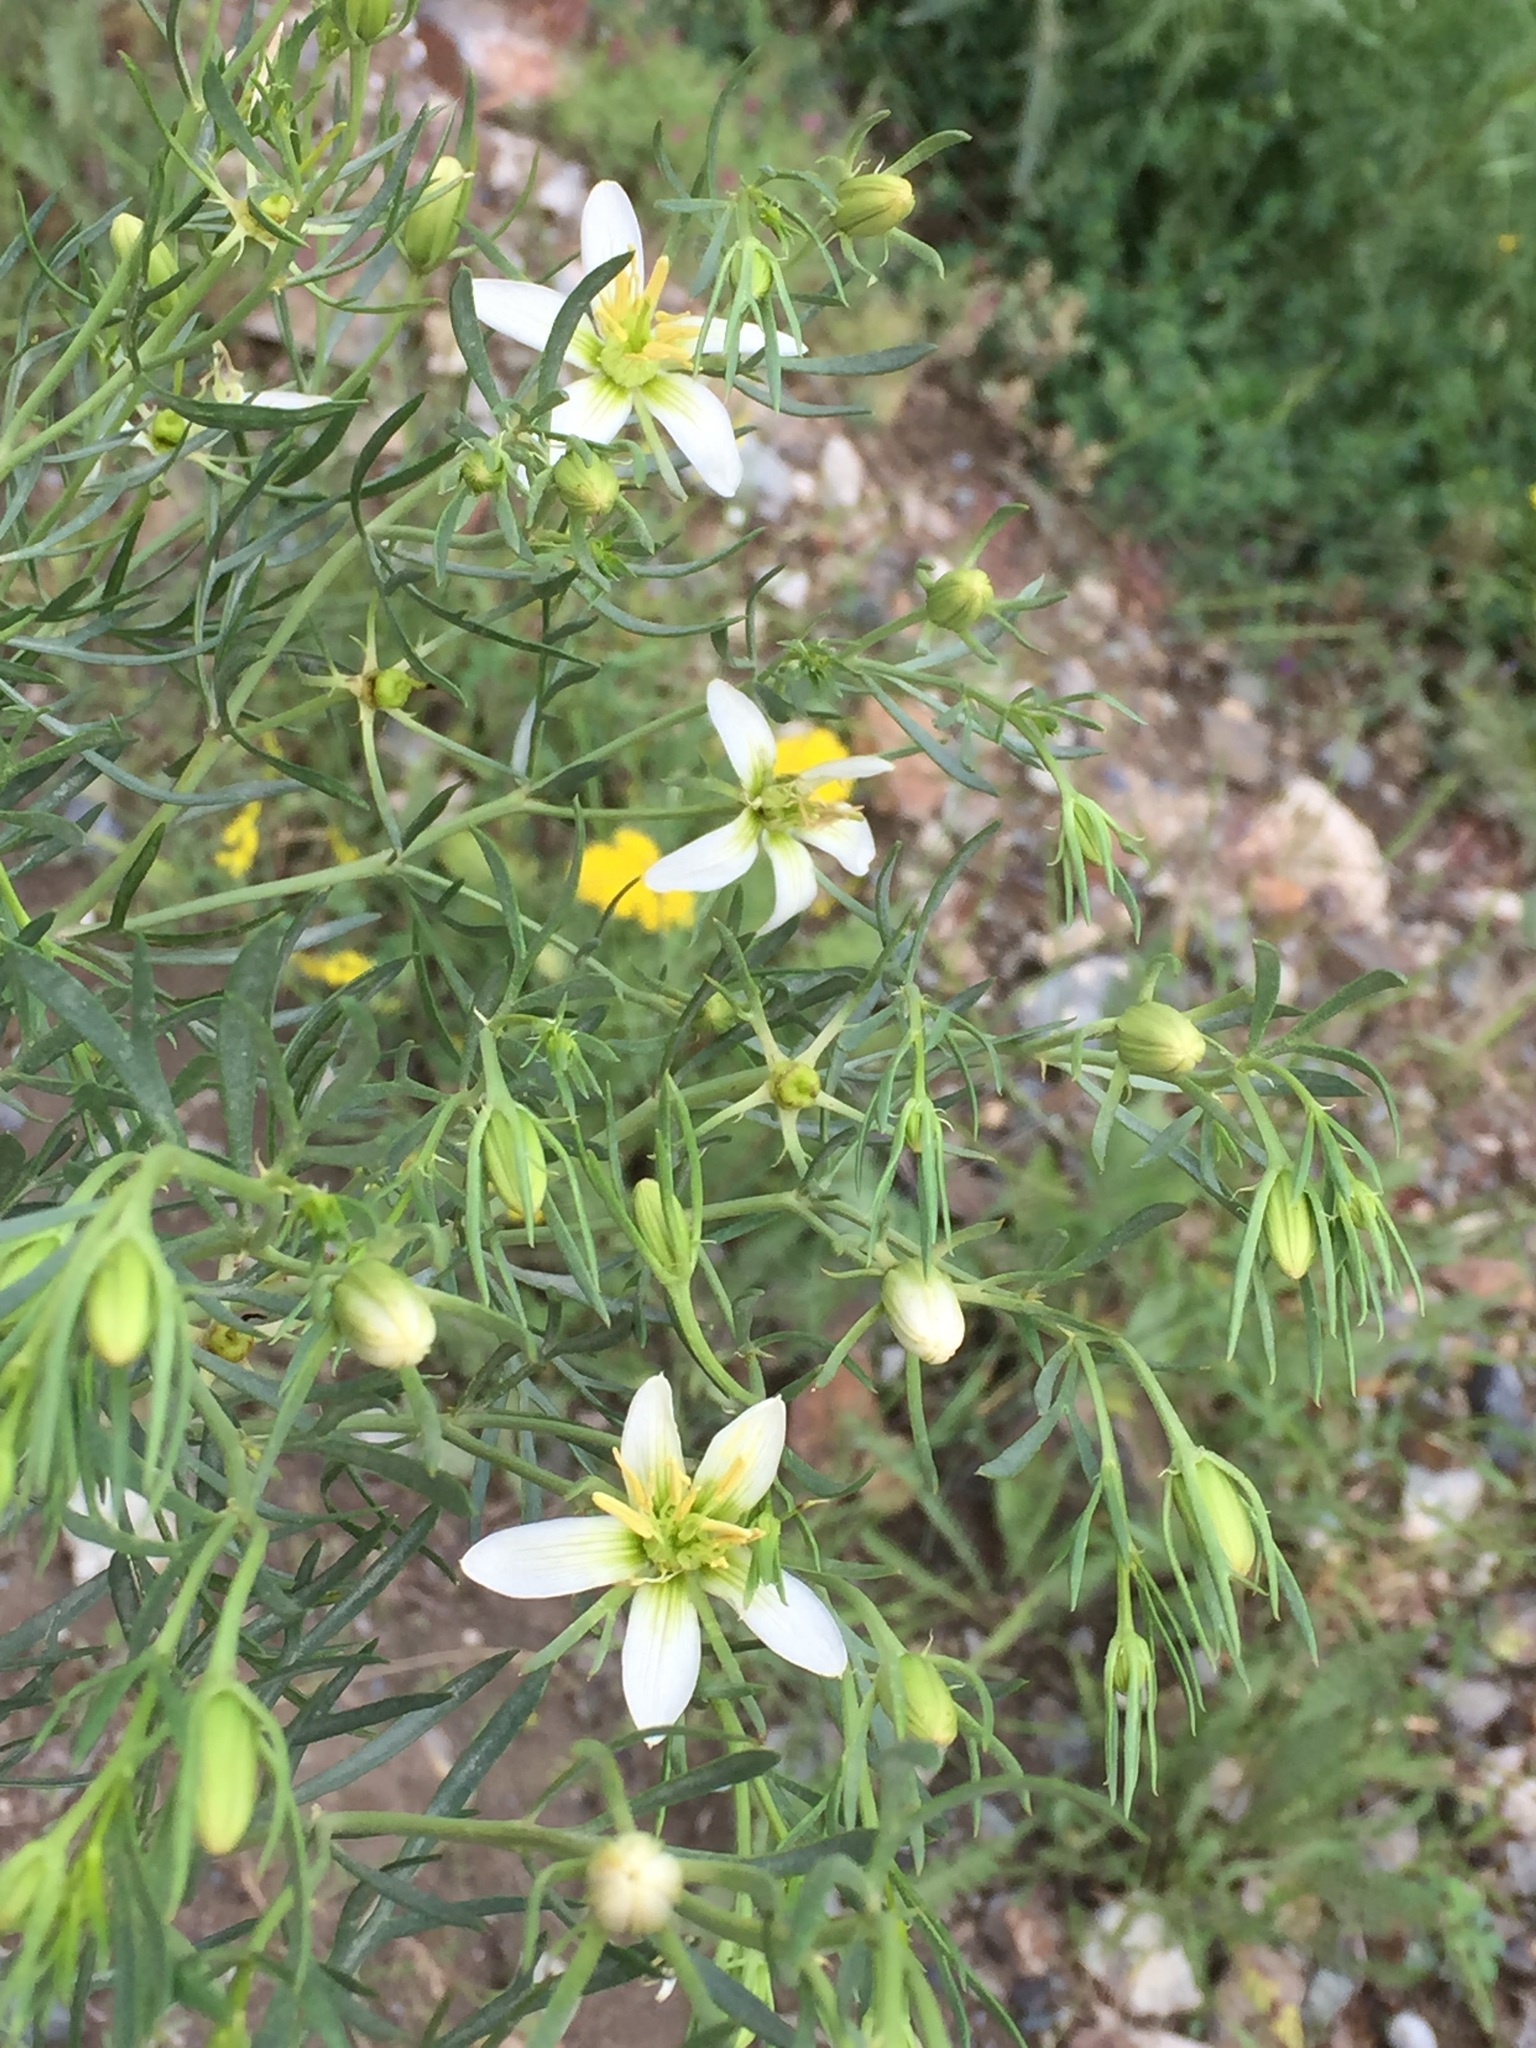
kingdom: Plantae
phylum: Tracheophyta
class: Magnoliopsida
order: Sapindales
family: Tetradiclidaceae
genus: Peganum
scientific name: Peganum harmala
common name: Harmal peganum
